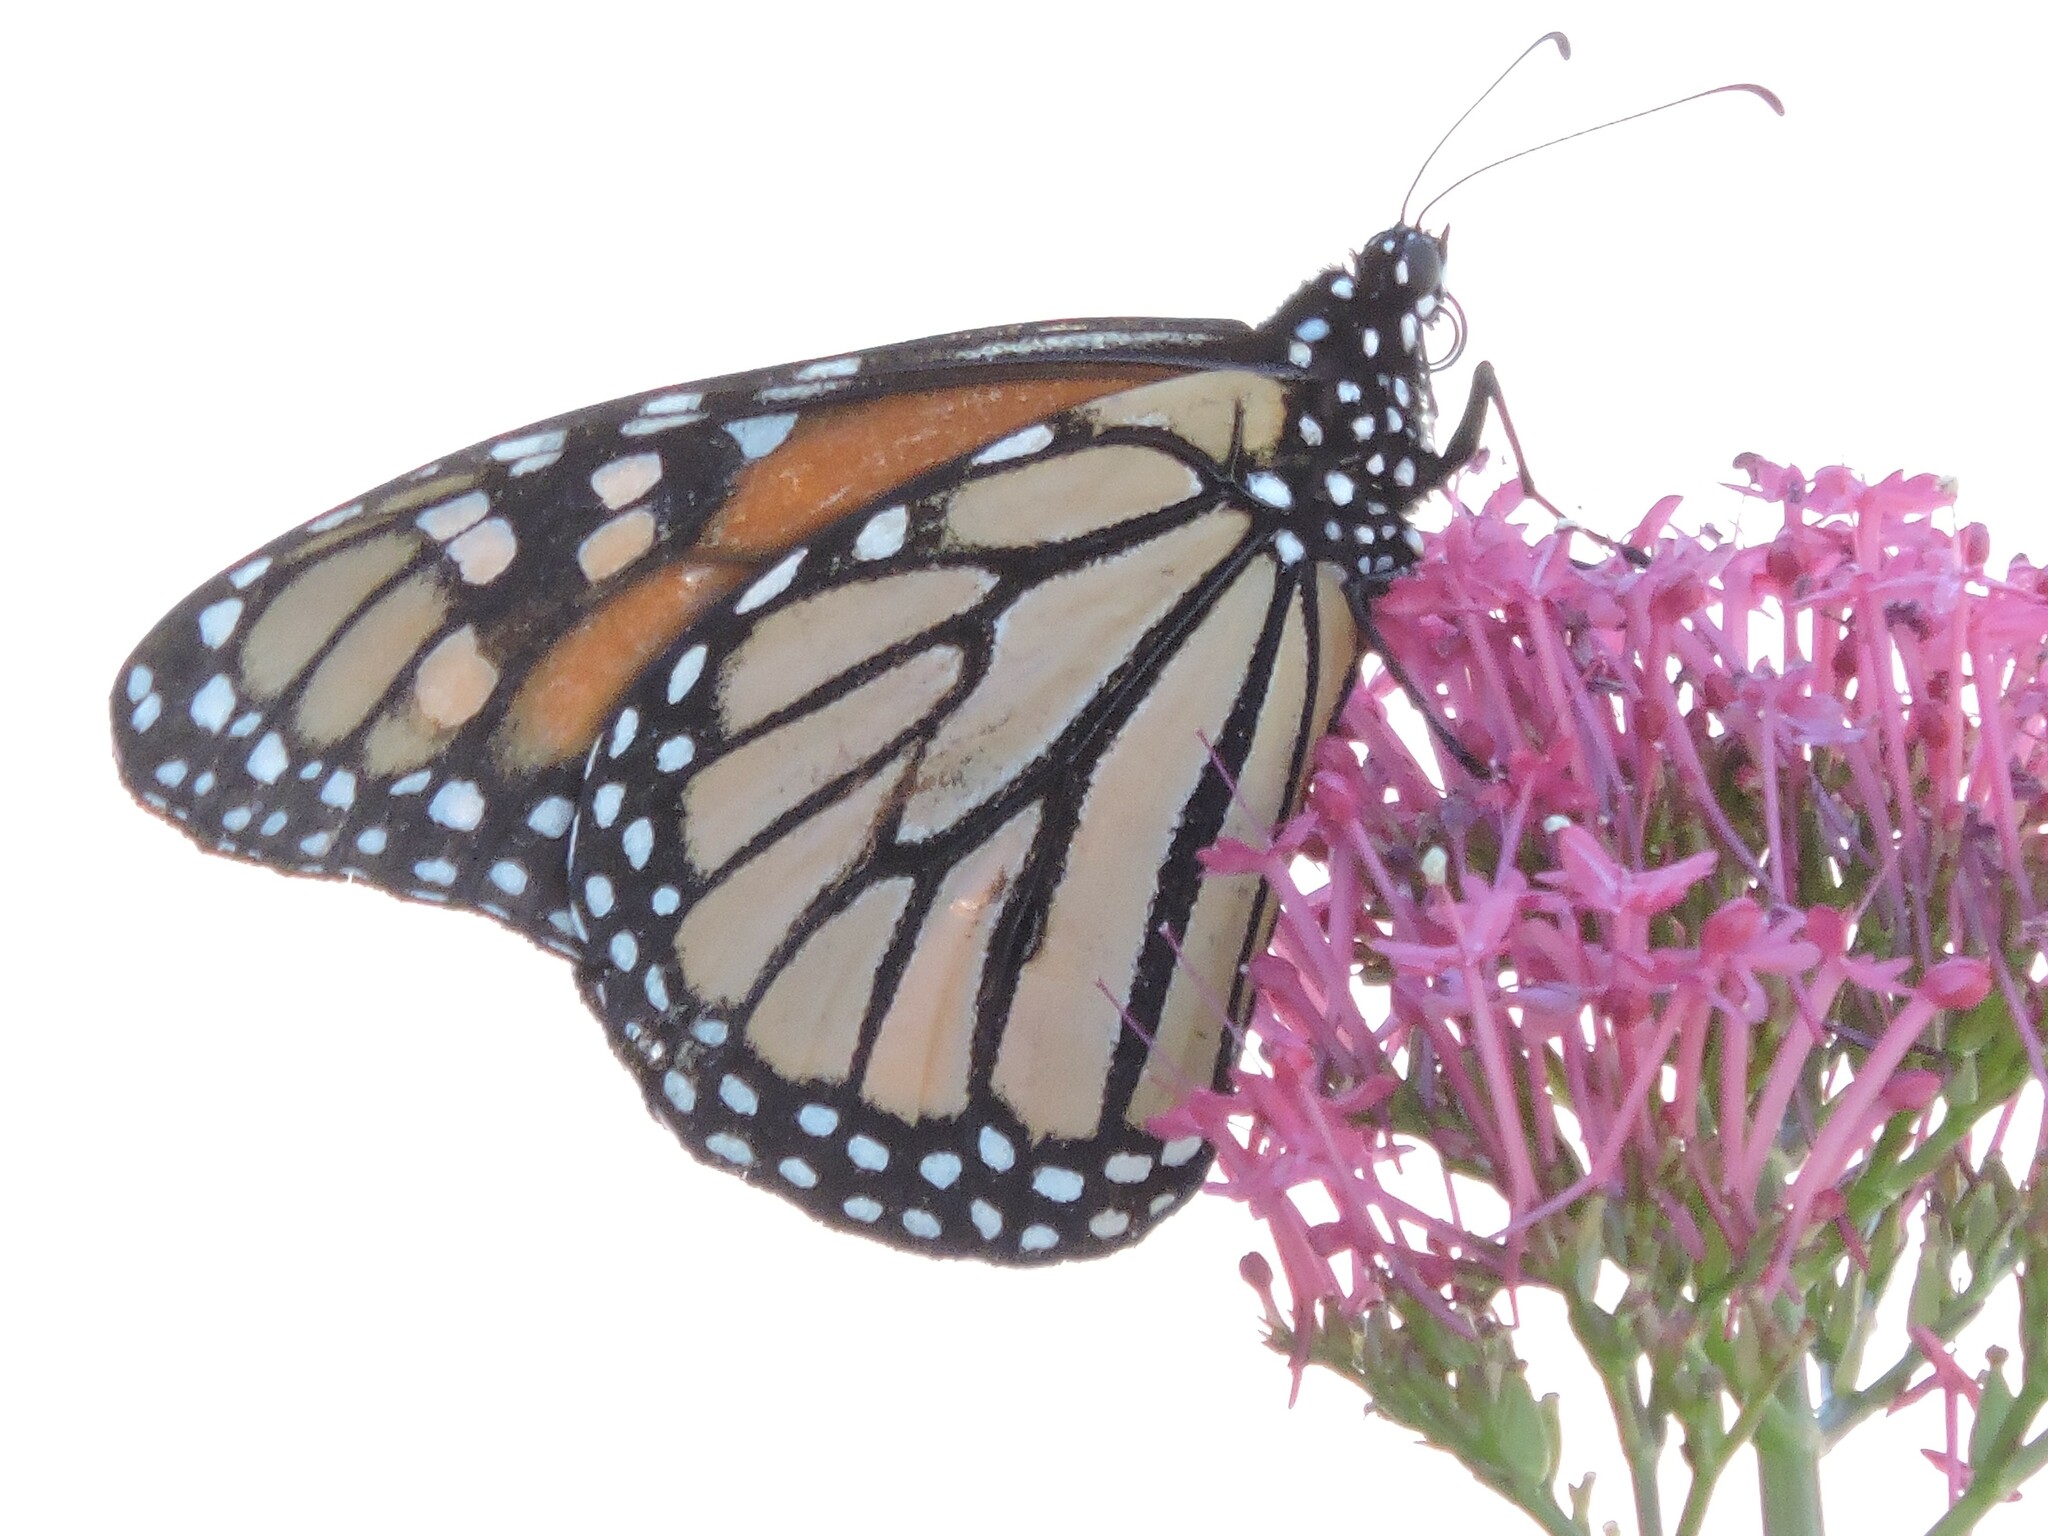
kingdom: Animalia
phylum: Arthropoda
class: Insecta
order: Lepidoptera
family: Nymphalidae
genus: Danaus
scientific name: Danaus plexippus
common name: Monarch
